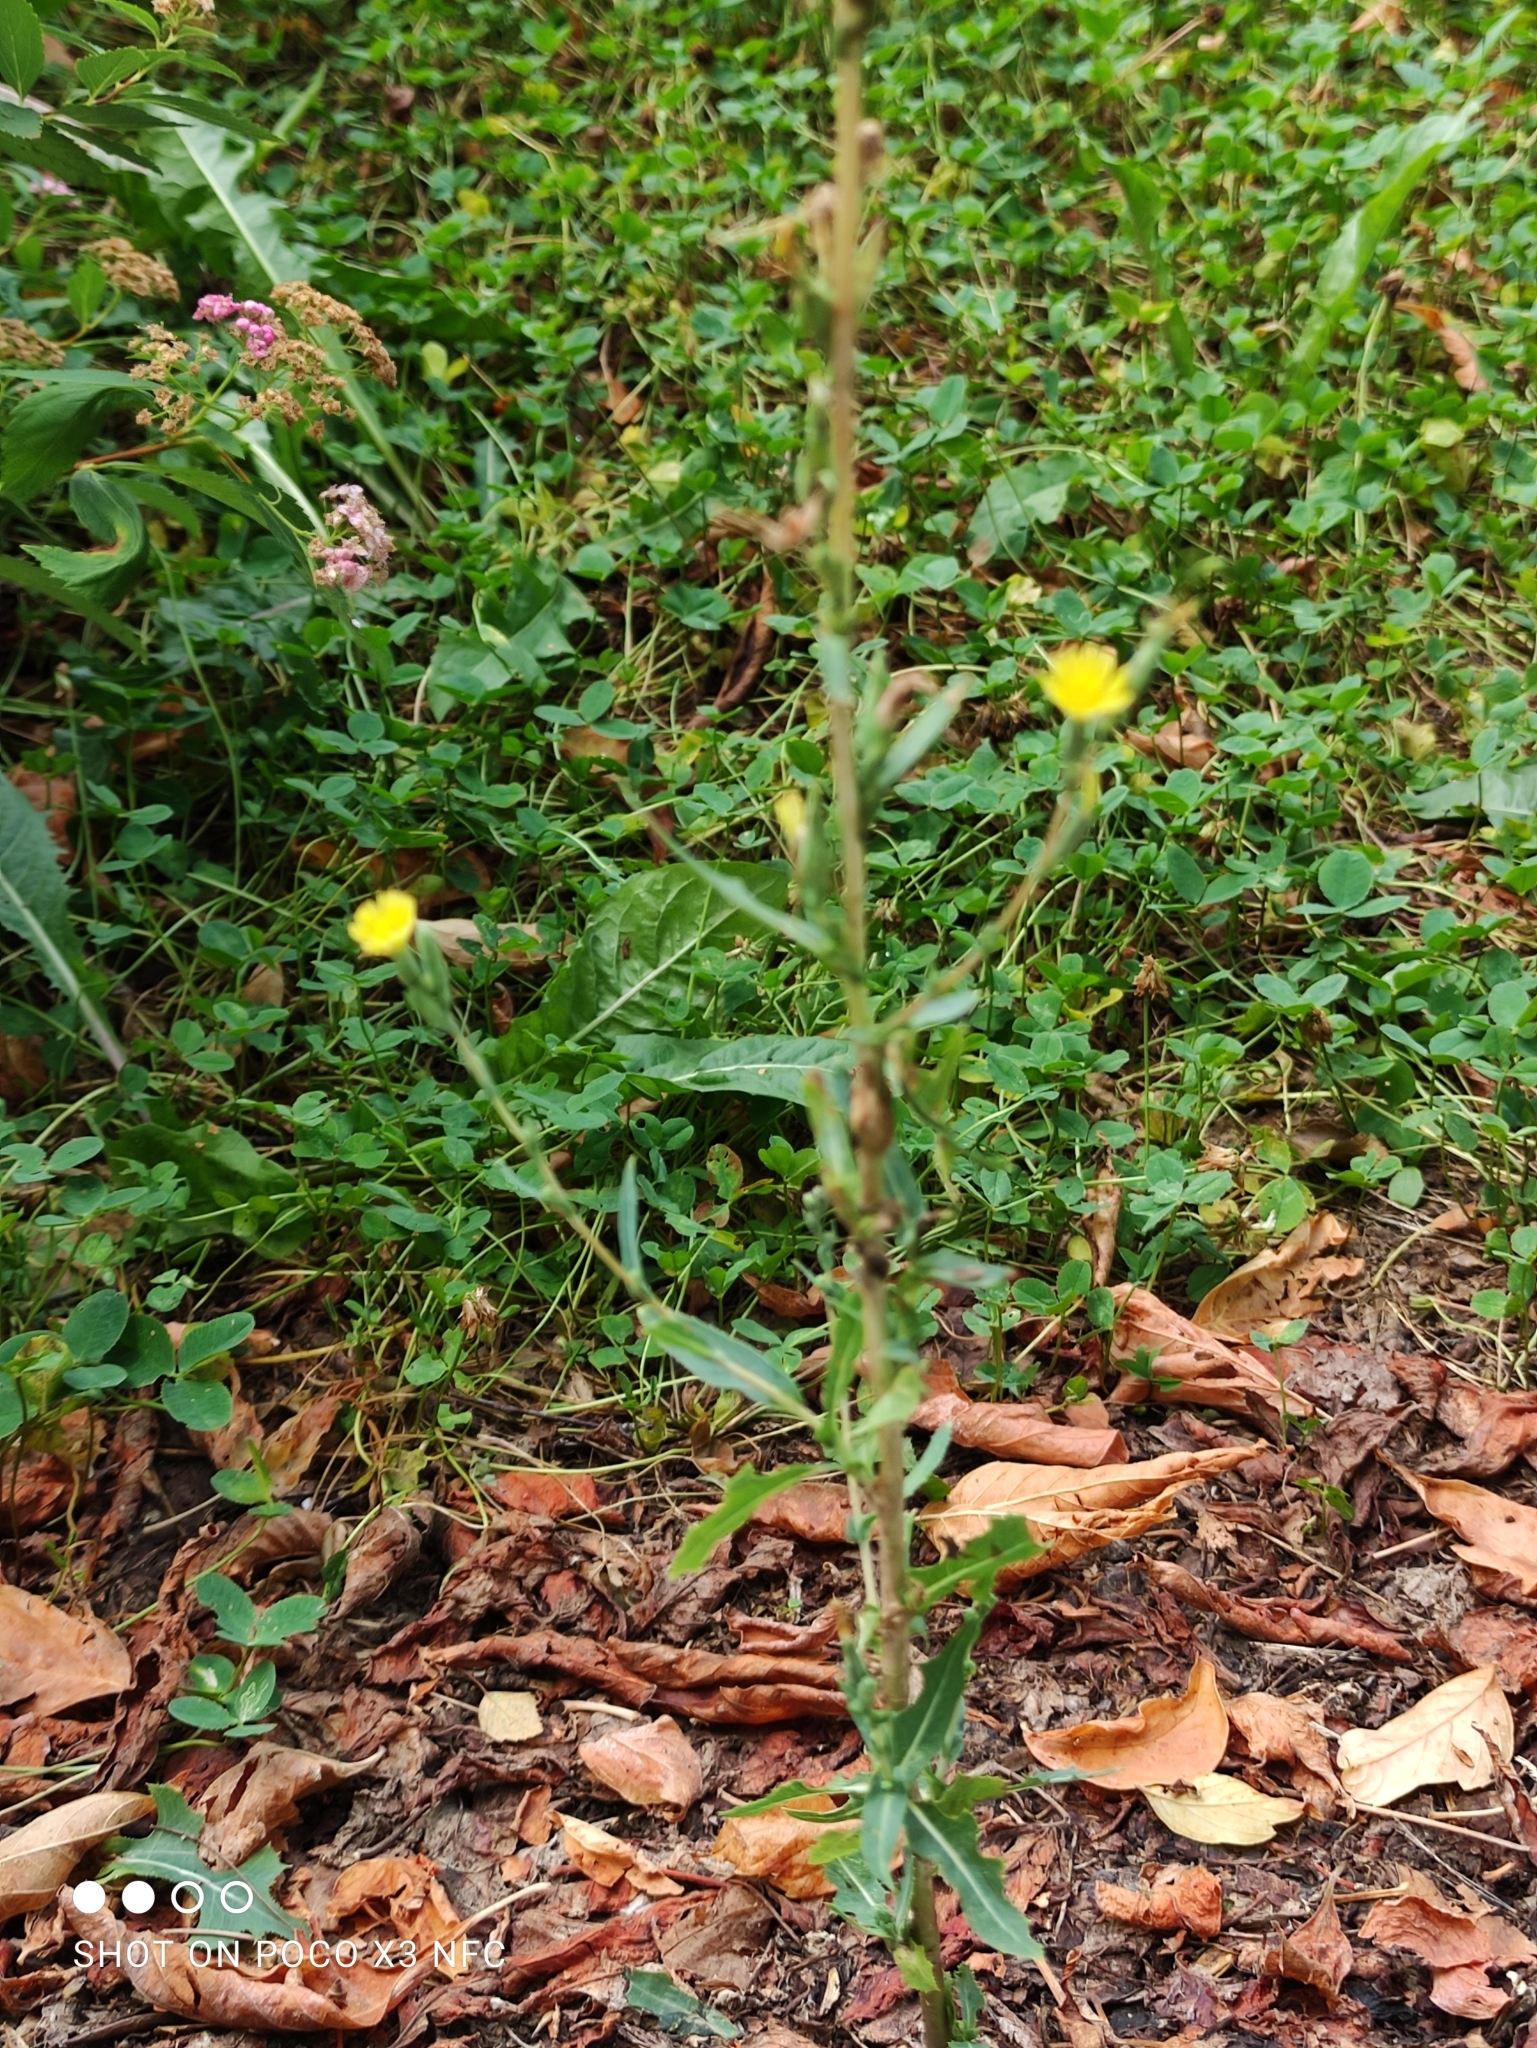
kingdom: Plantae
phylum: Tracheophyta
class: Magnoliopsida
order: Asterales
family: Asteraceae
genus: Lactuca
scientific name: Lactuca serriola
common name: Prickly lettuce
